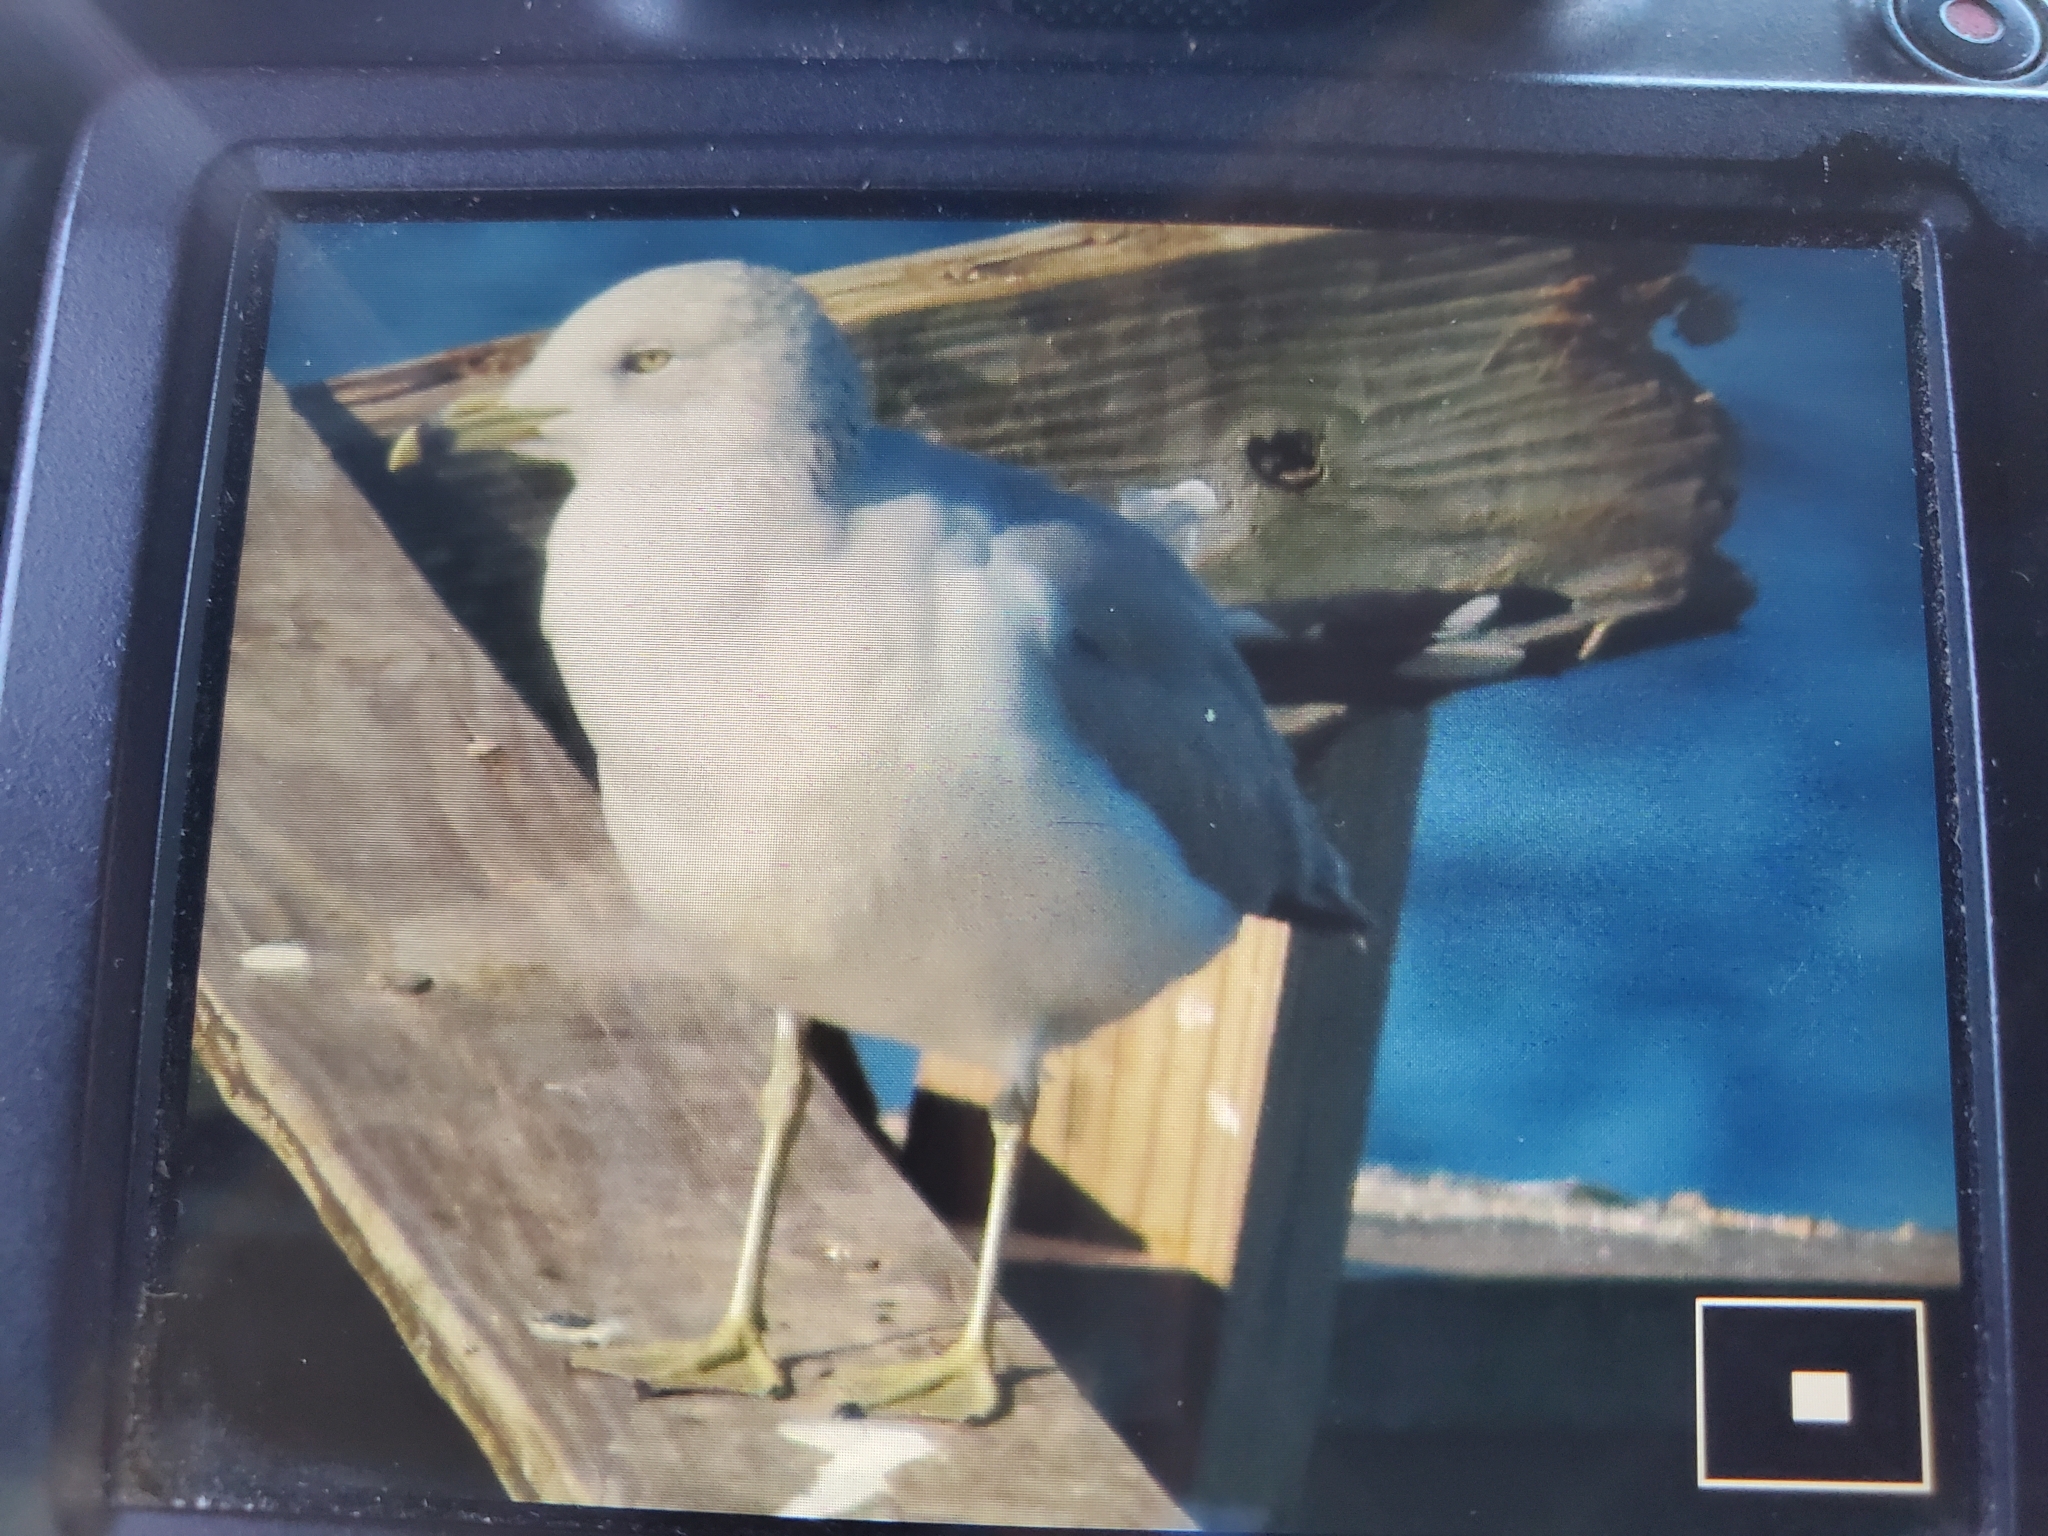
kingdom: Animalia
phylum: Chordata
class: Aves
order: Charadriiformes
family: Laridae
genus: Larus
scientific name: Larus delawarensis
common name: Ring-billed gull
